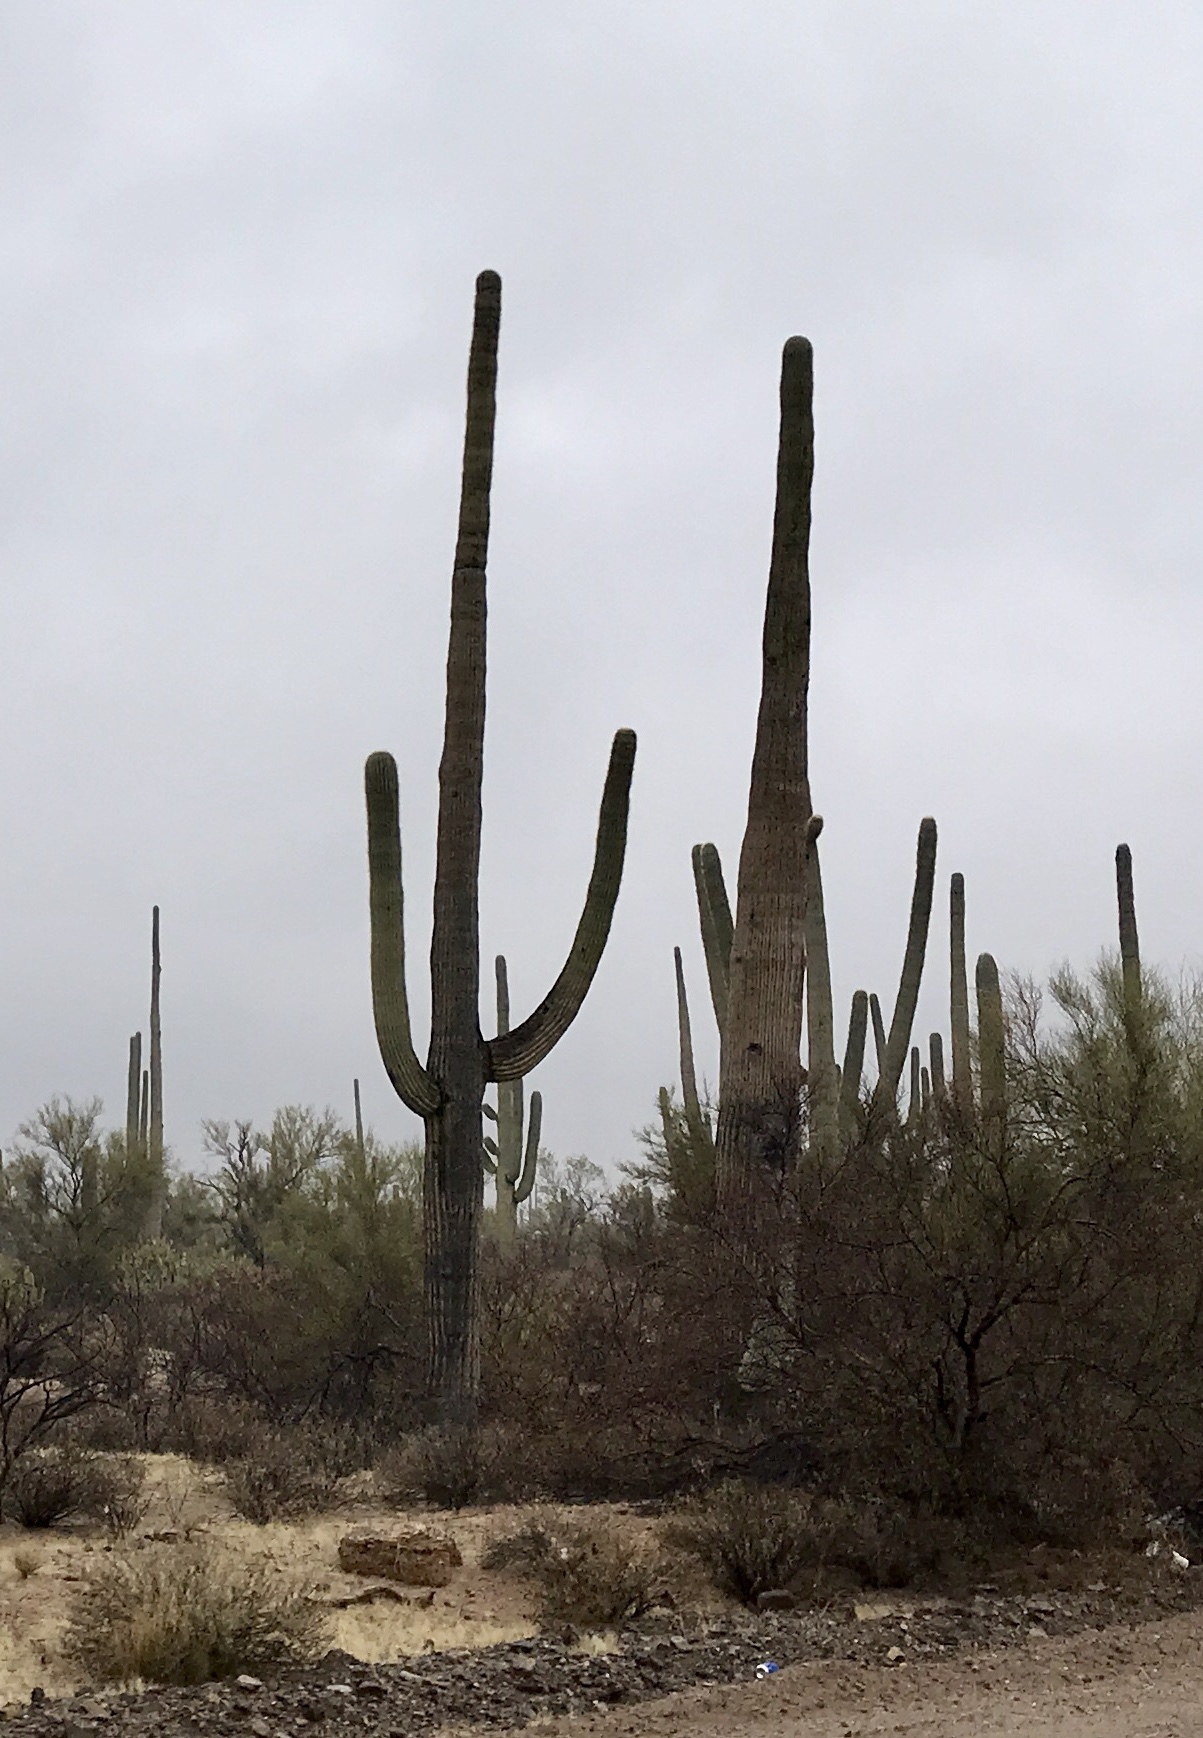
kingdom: Plantae
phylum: Tracheophyta
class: Magnoliopsida
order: Caryophyllales
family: Cactaceae
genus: Carnegiea
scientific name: Carnegiea gigantea
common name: Saguaro
